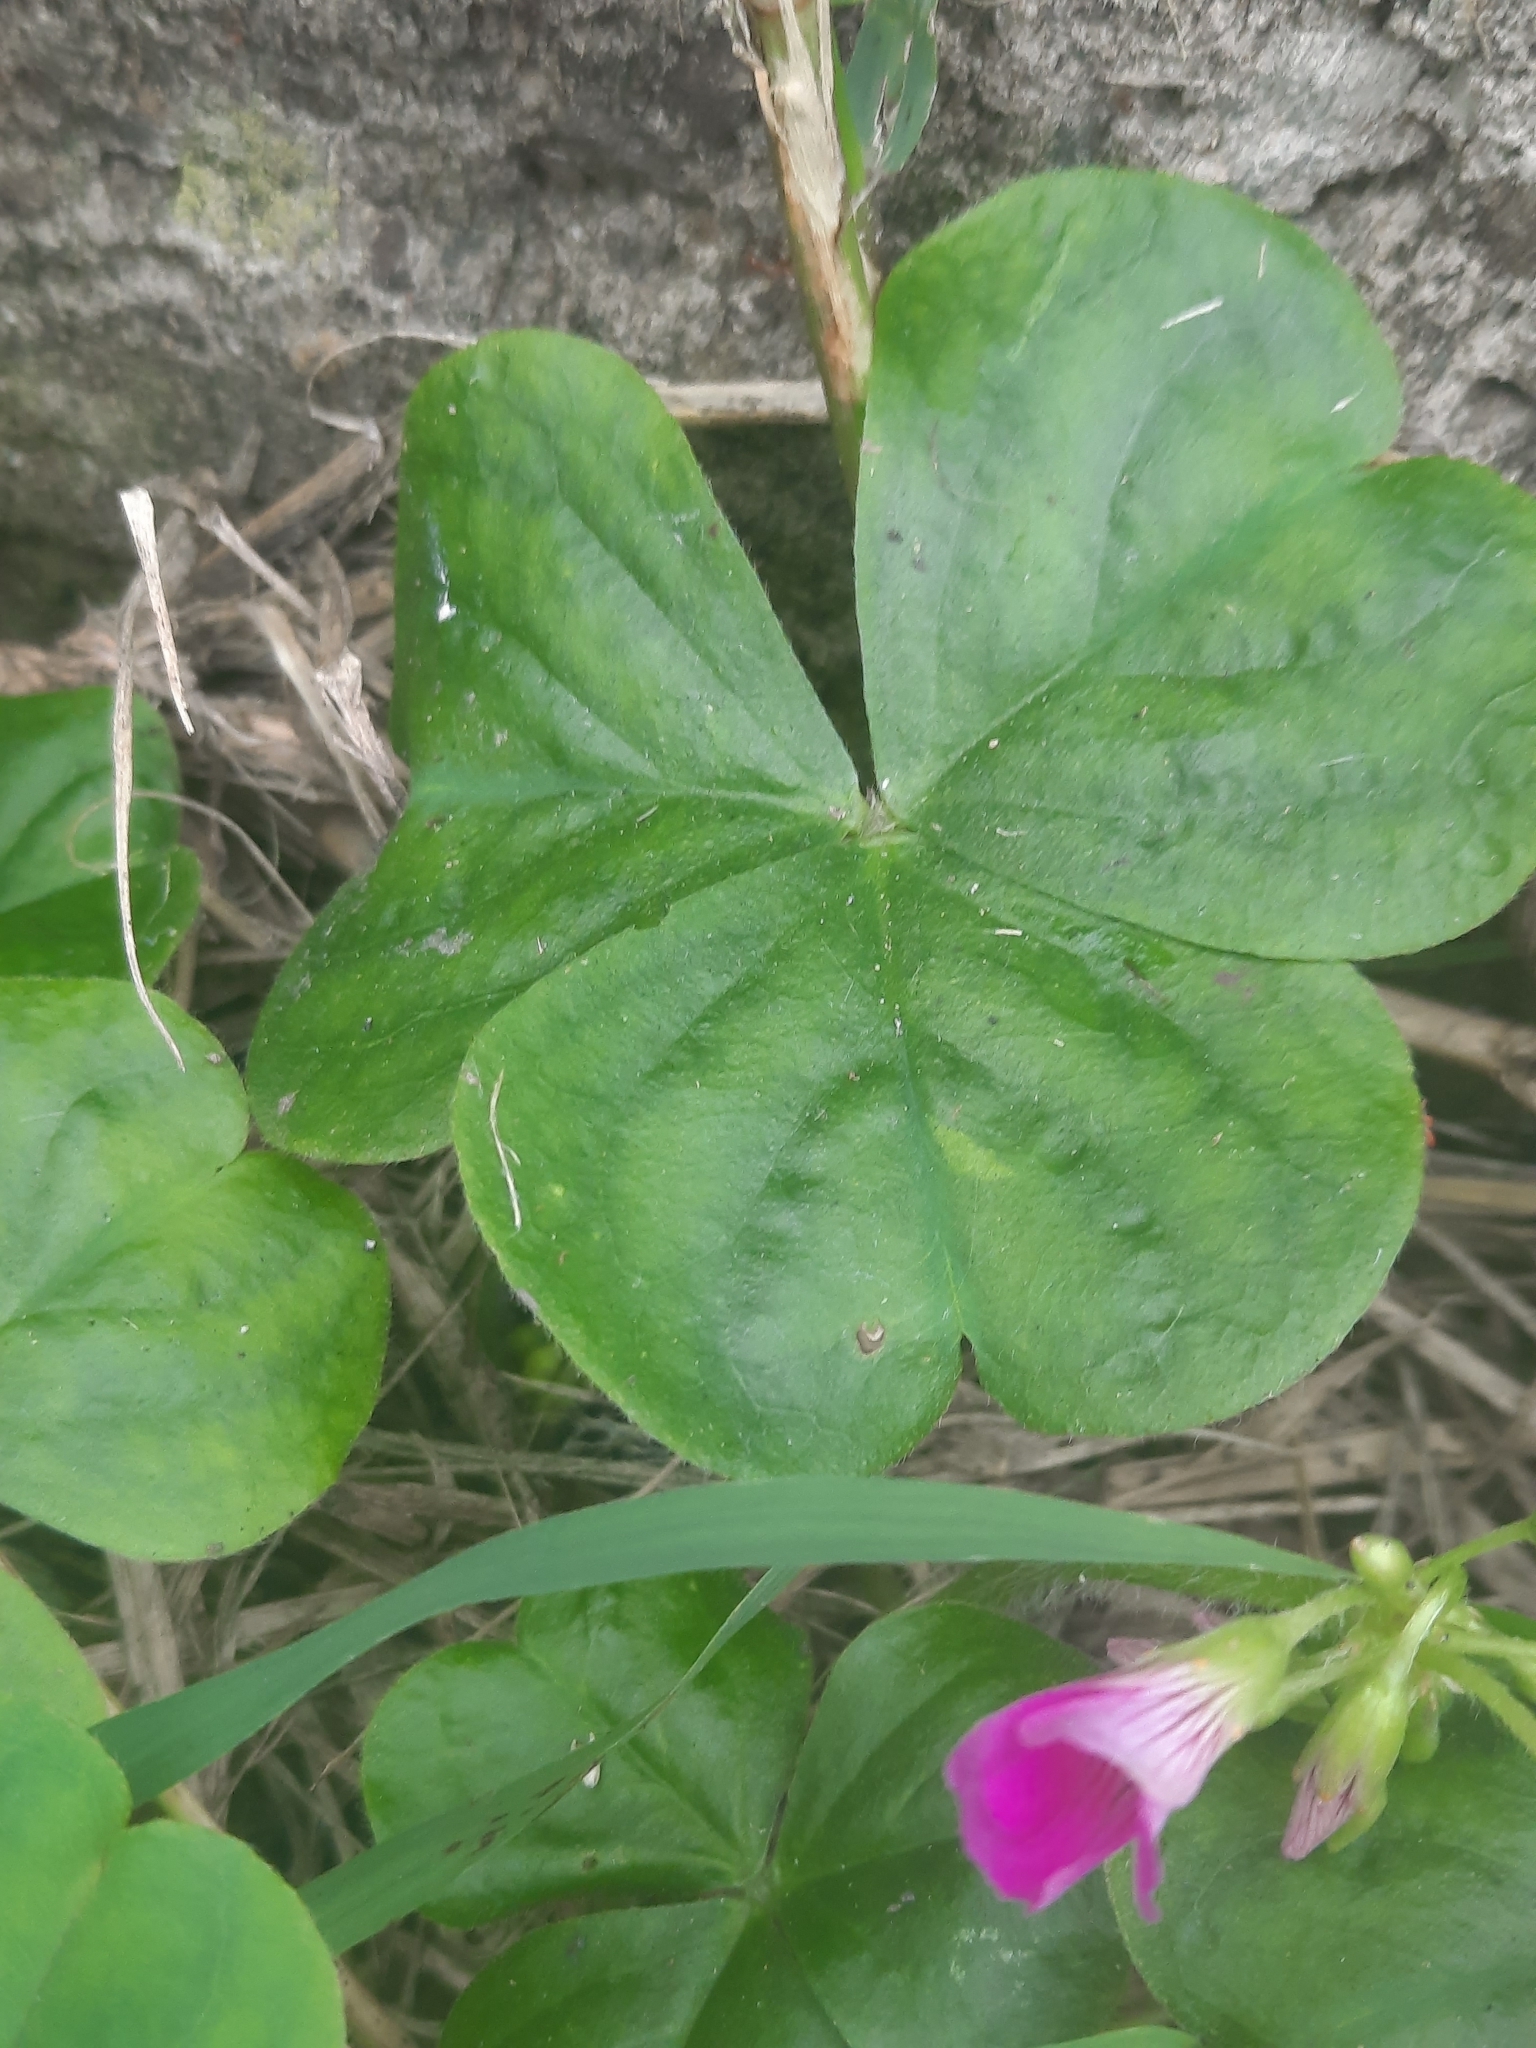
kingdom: Plantae
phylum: Tracheophyta
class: Magnoliopsida
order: Oxalidales
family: Oxalidaceae
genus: Oxalis
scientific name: Oxalis debilis
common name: Large-flowered pink-sorrel
